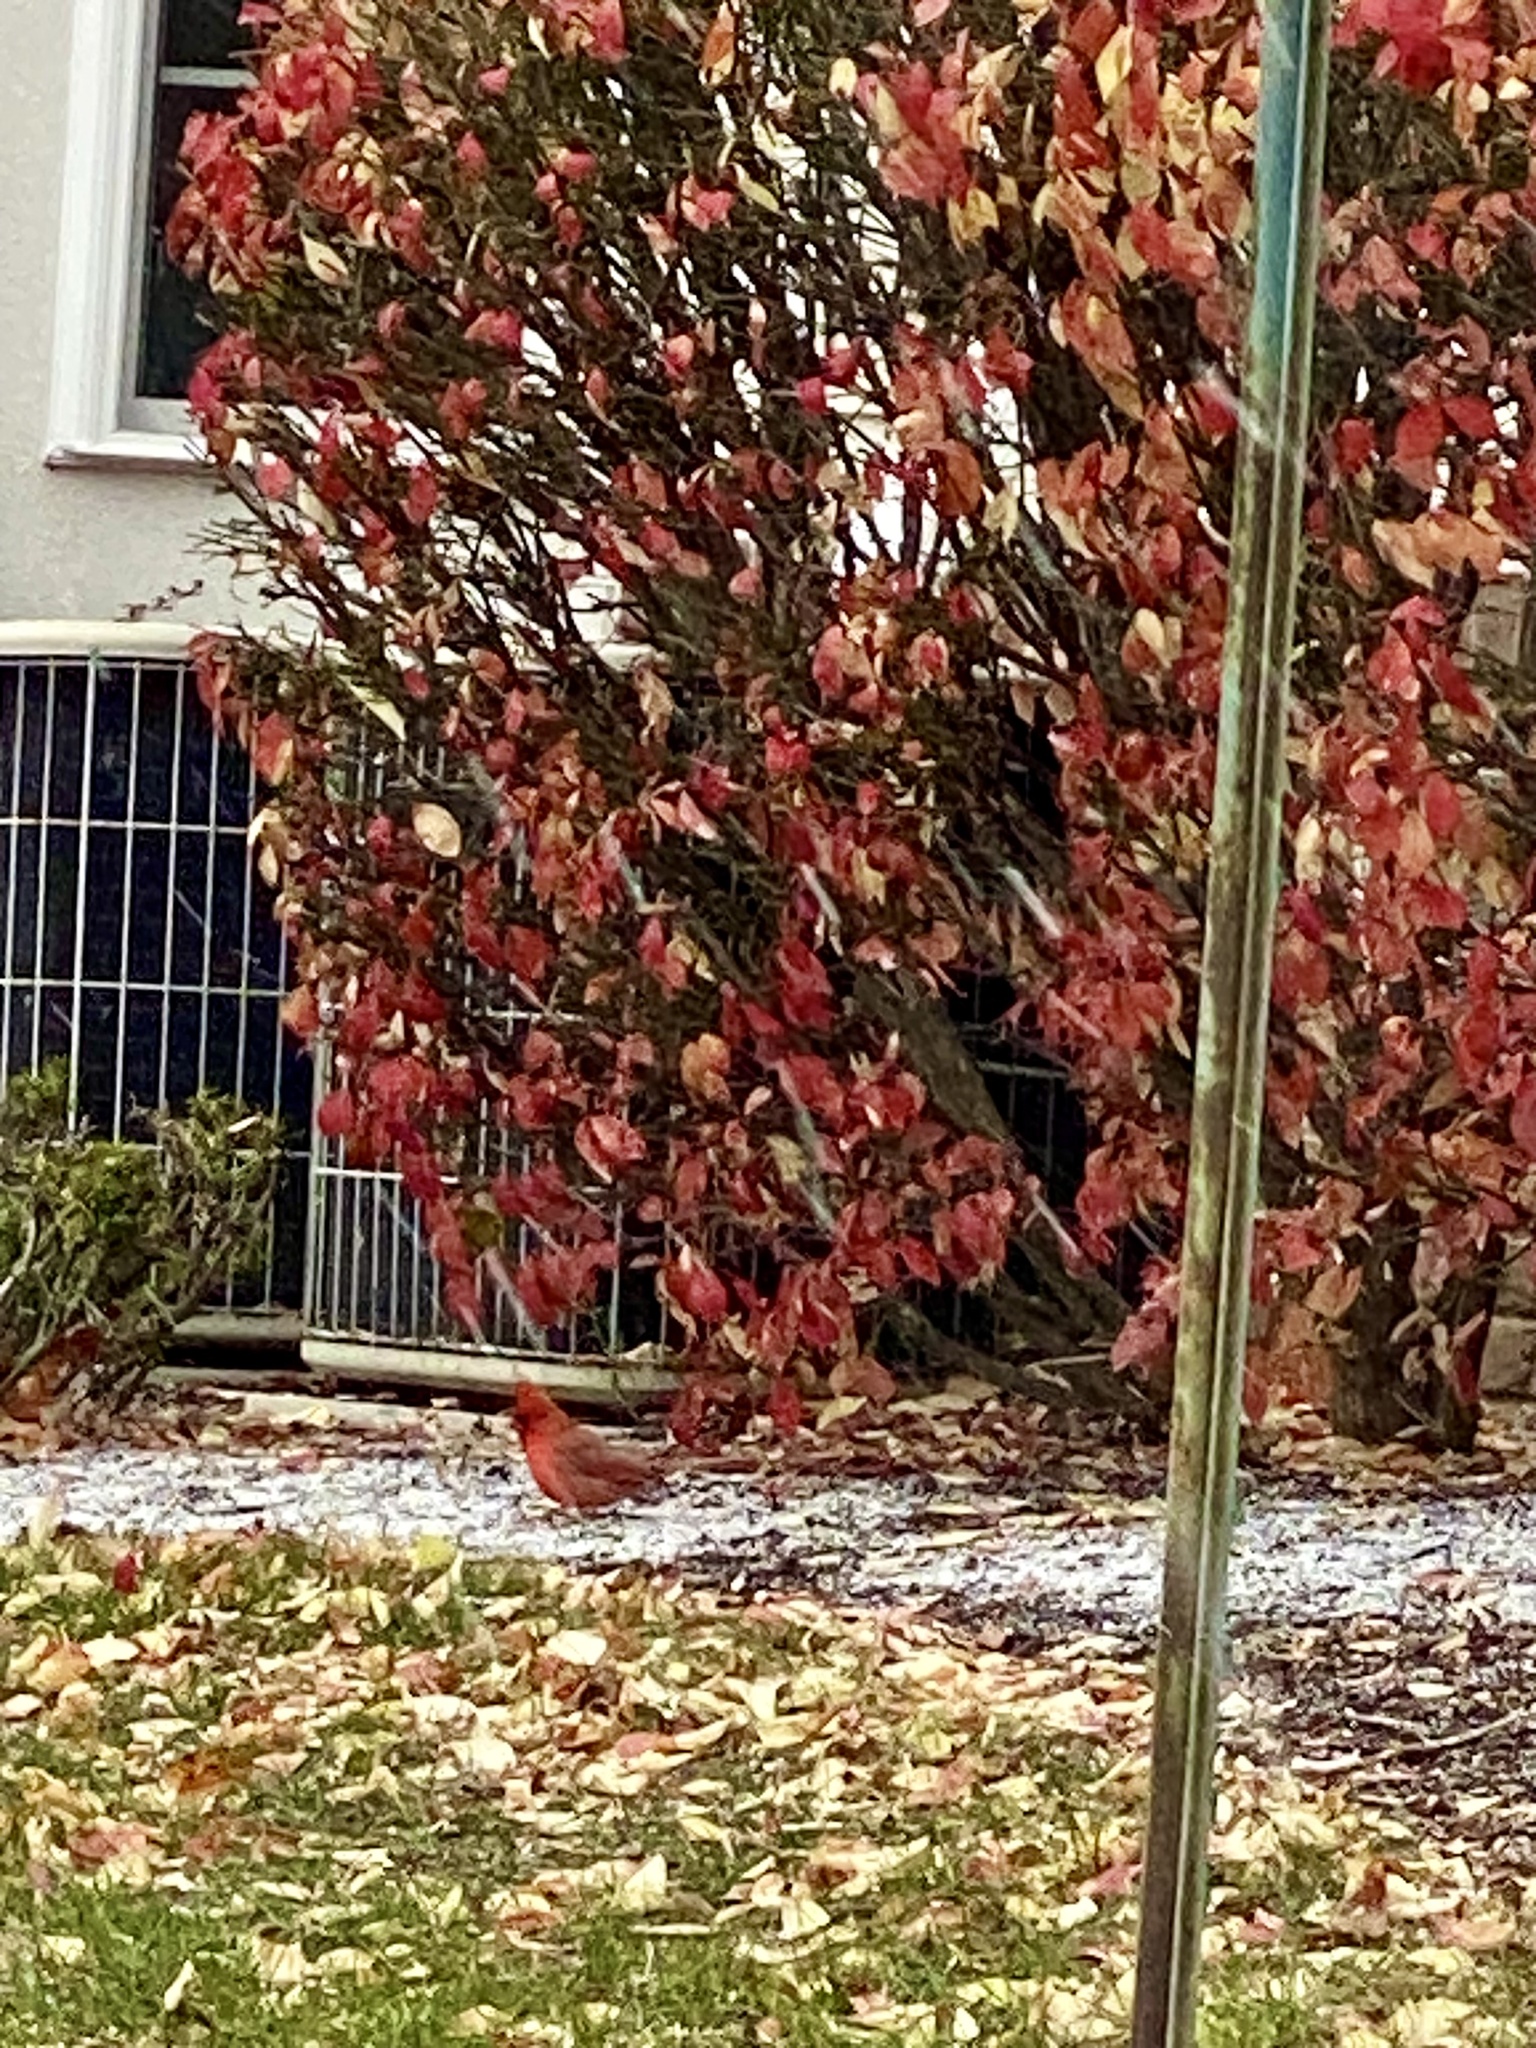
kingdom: Animalia
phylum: Chordata
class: Aves
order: Passeriformes
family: Cardinalidae
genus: Cardinalis
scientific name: Cardinalis cardinalis
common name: Northern cardinal
